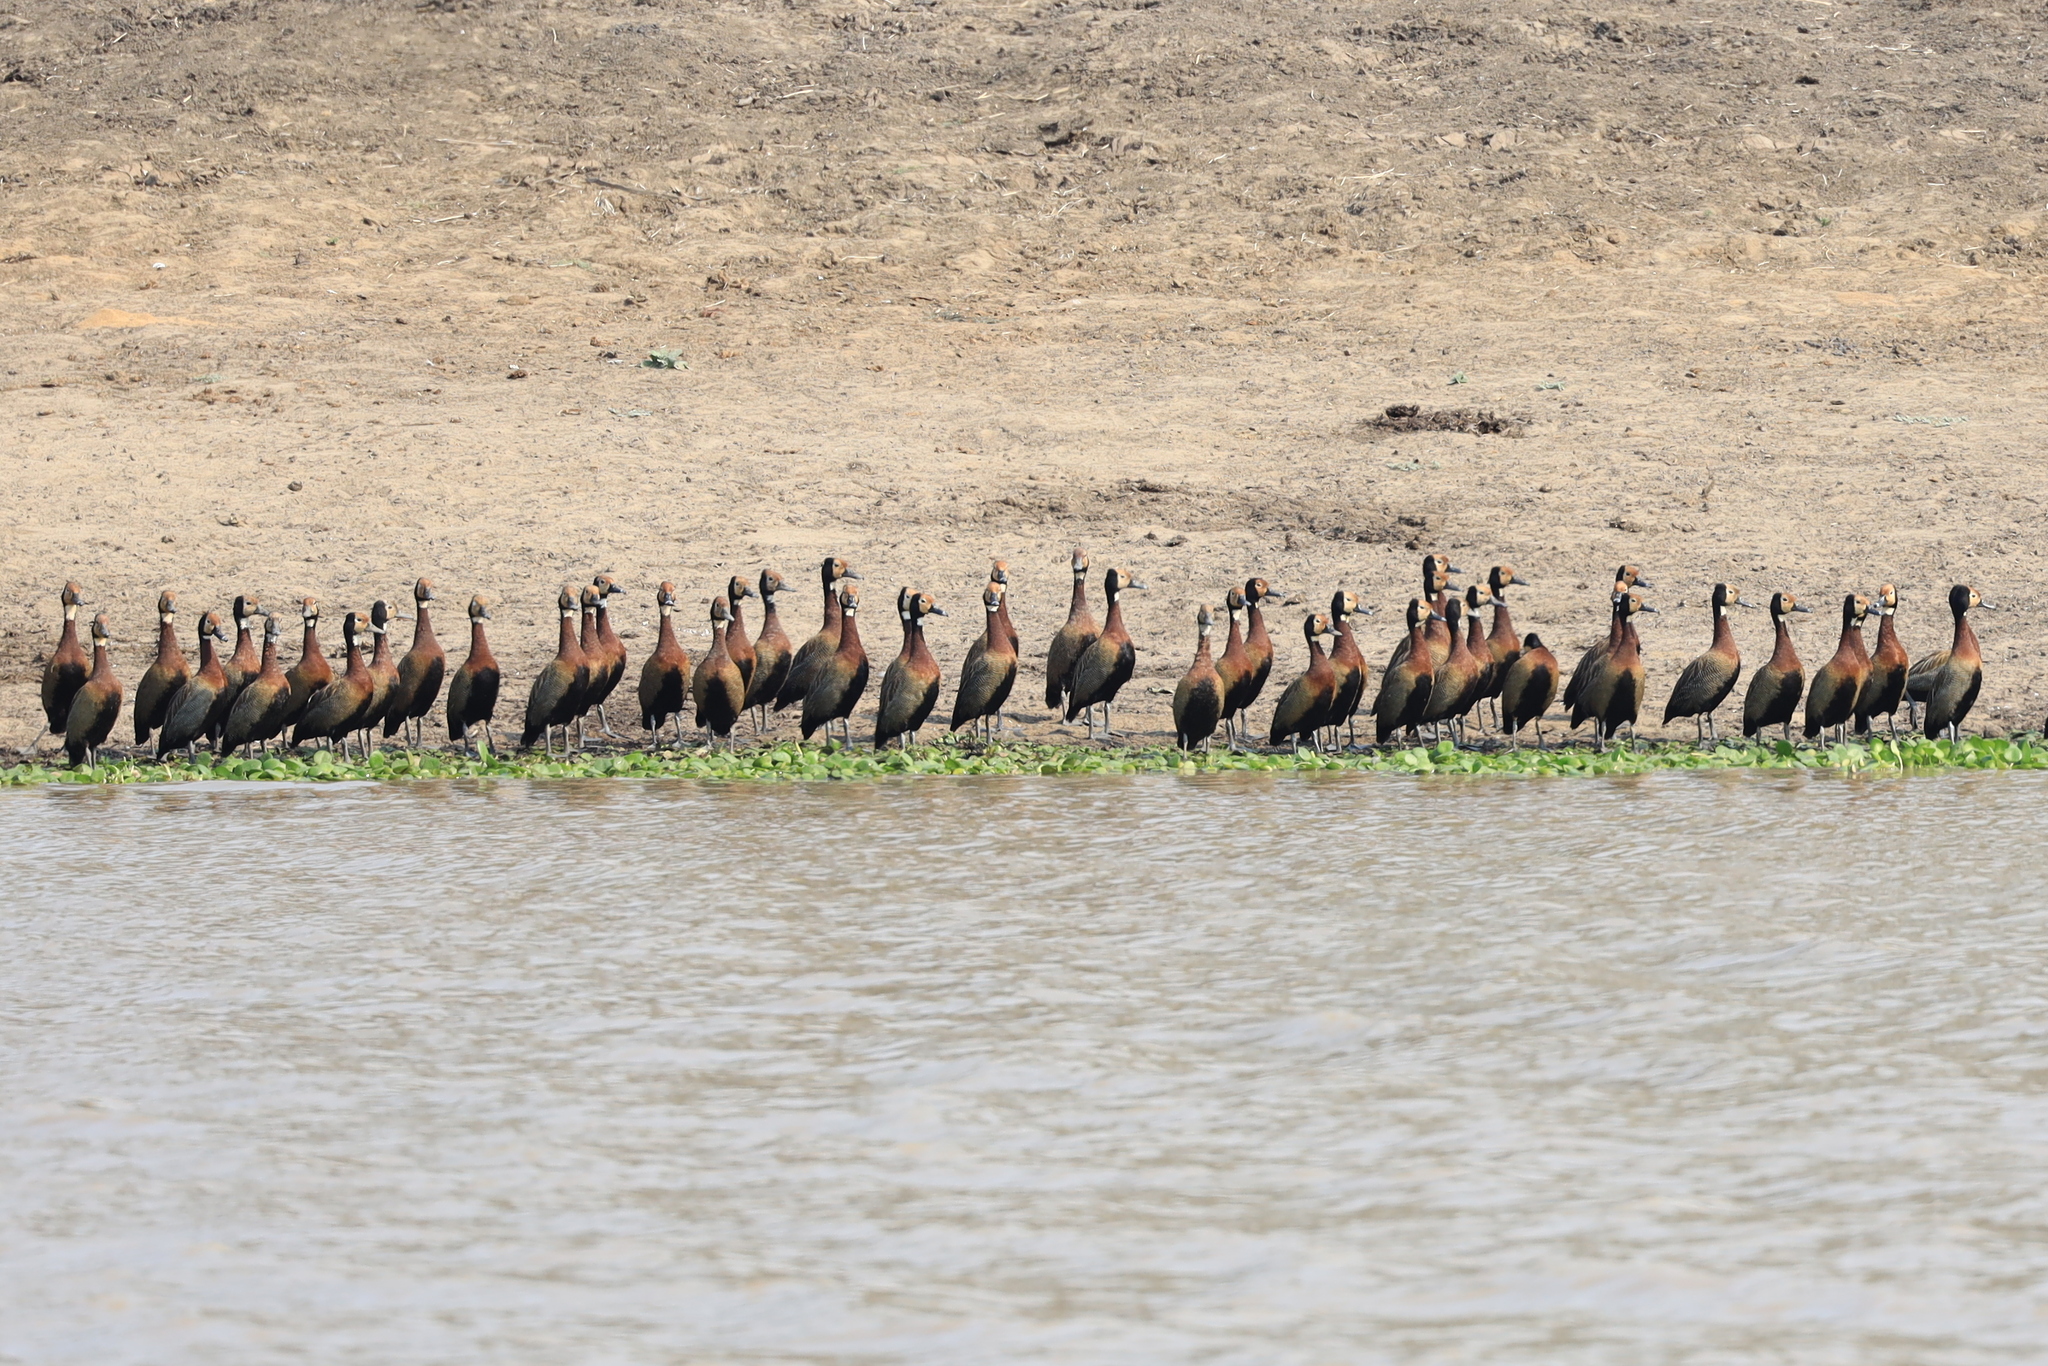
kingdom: Animalia
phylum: Chordata
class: Aves
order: Anseriformes
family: Anatidae
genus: Dendrocygna
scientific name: Dendrocygna viduata
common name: White-faced whistling duck
